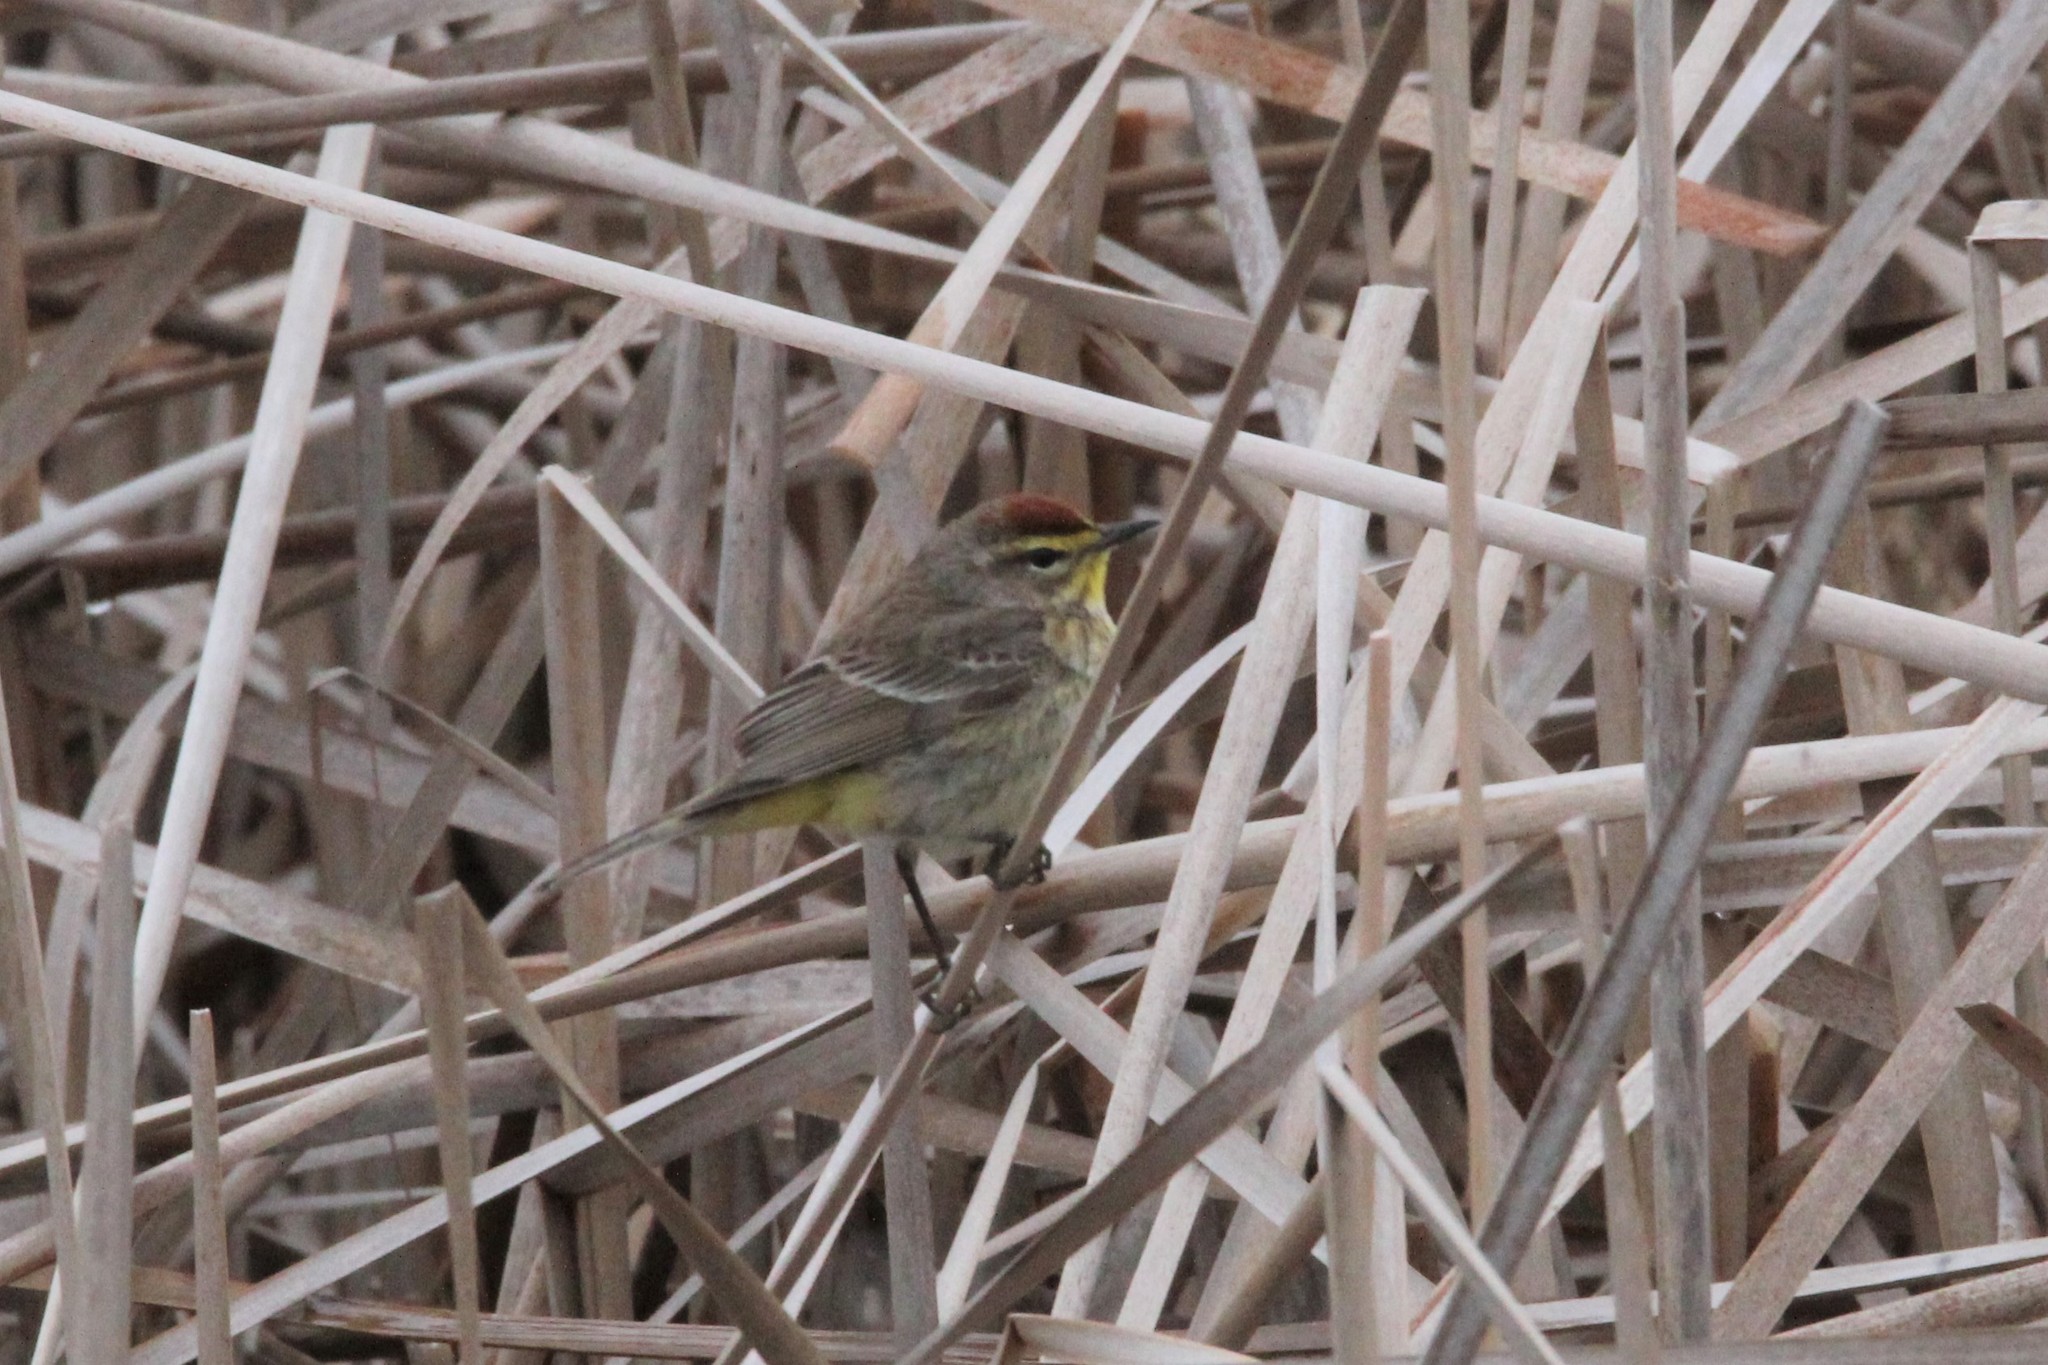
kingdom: Animalia
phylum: Chordata
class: Aves
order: Passeriformes
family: Parulidae
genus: Setophaga
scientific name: Setophaga palmarum
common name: Palm warbler
